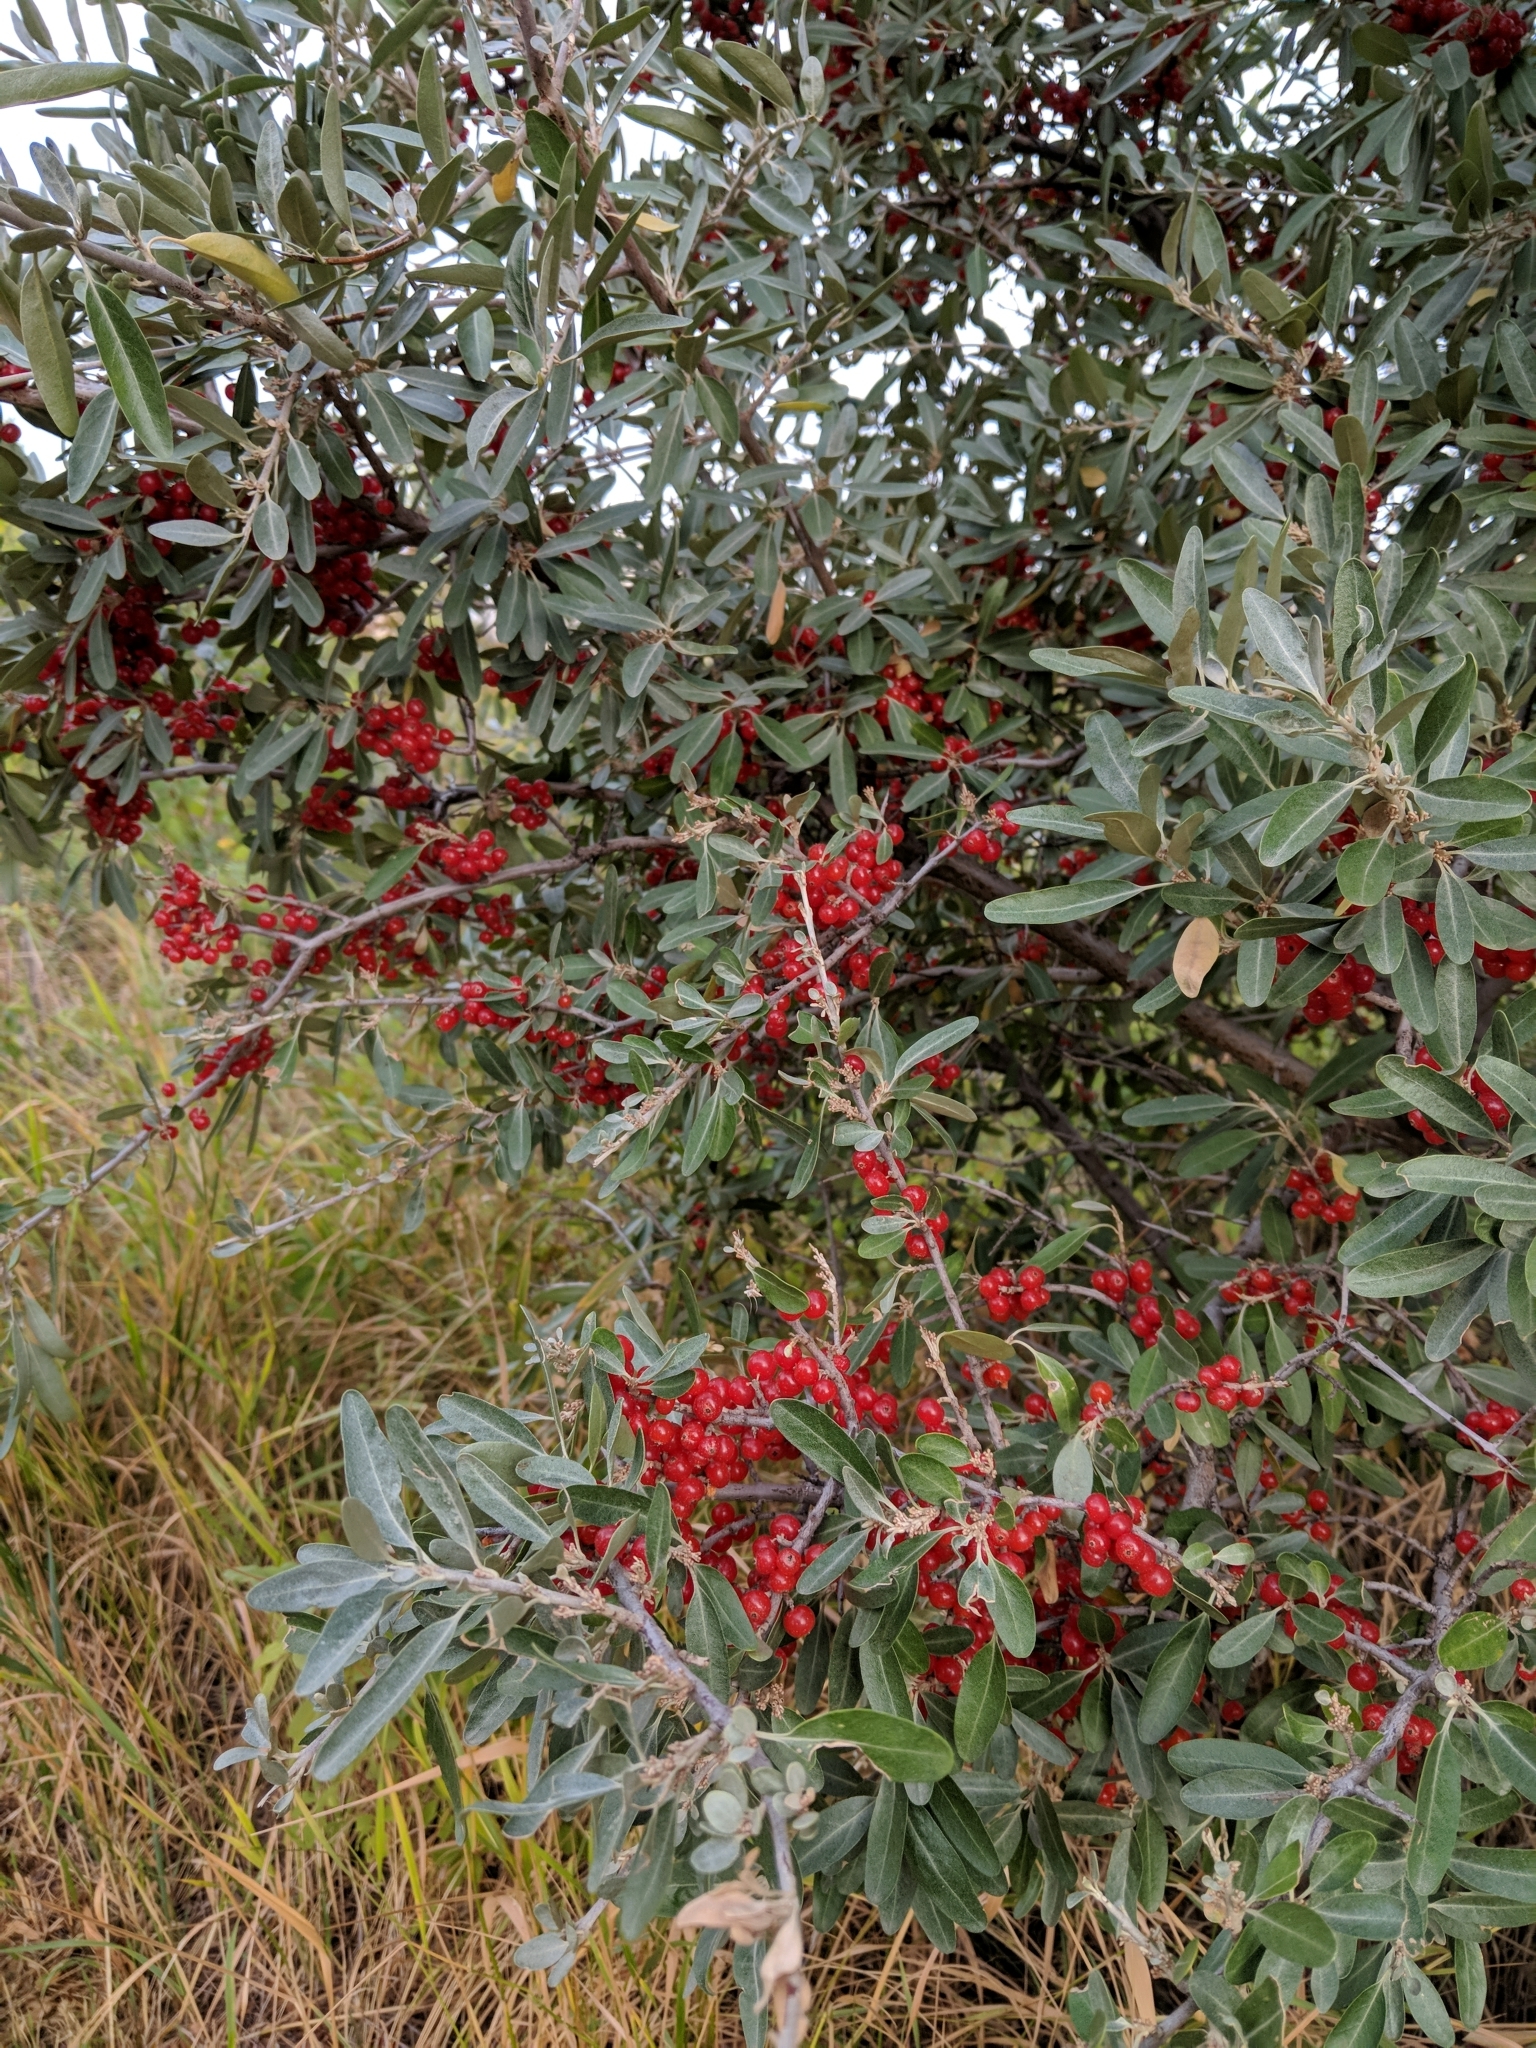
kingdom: Plantae
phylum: Tracheophyta
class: Magnoliopsida
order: Rosales
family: Elaeagnaceae
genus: Shepherdia
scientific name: Shepherdia argentea
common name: Silver buffaloberry
